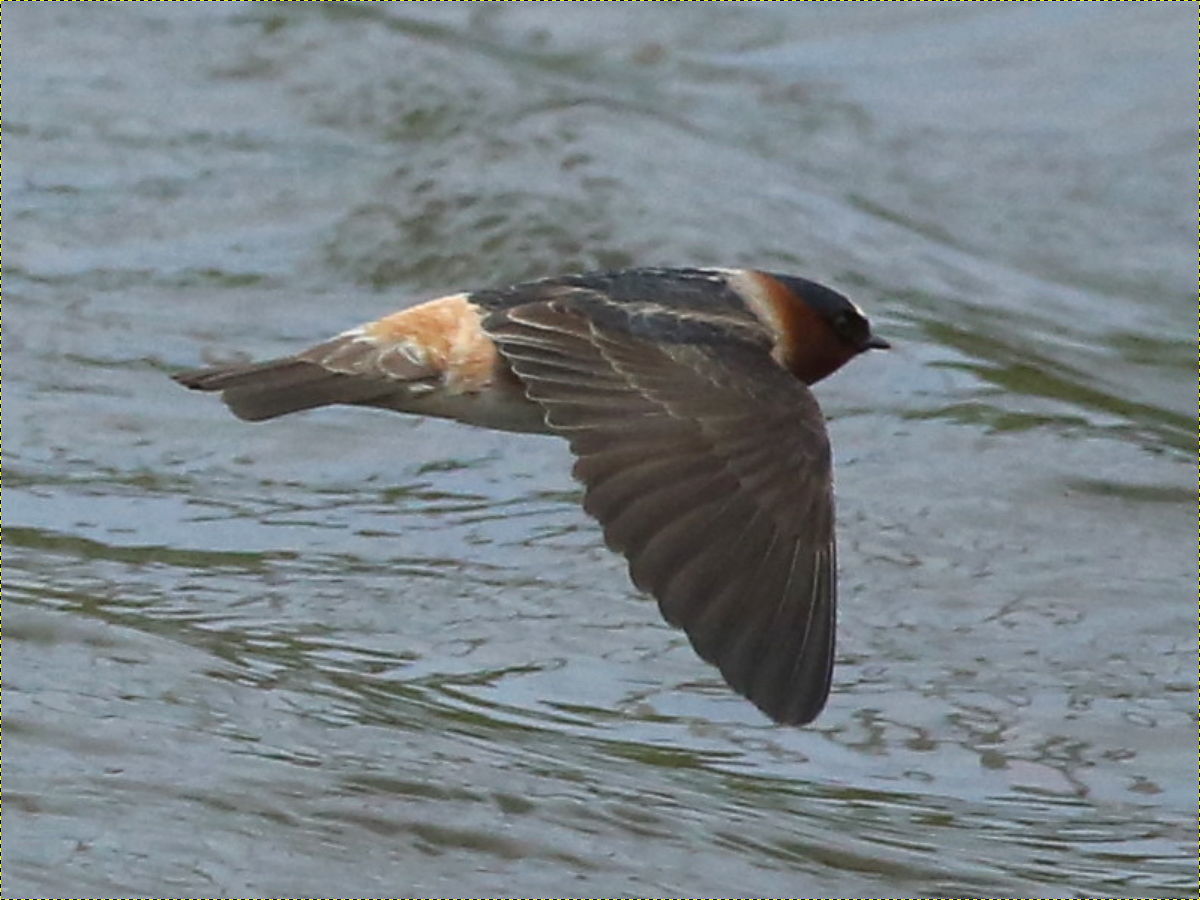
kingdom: Animalia
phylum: Chordata
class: Aves
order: Passeriformes
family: Hirundinidae
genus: Petrochelidon
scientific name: Petrochelidon pyrrhonota
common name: American cliff swallow
